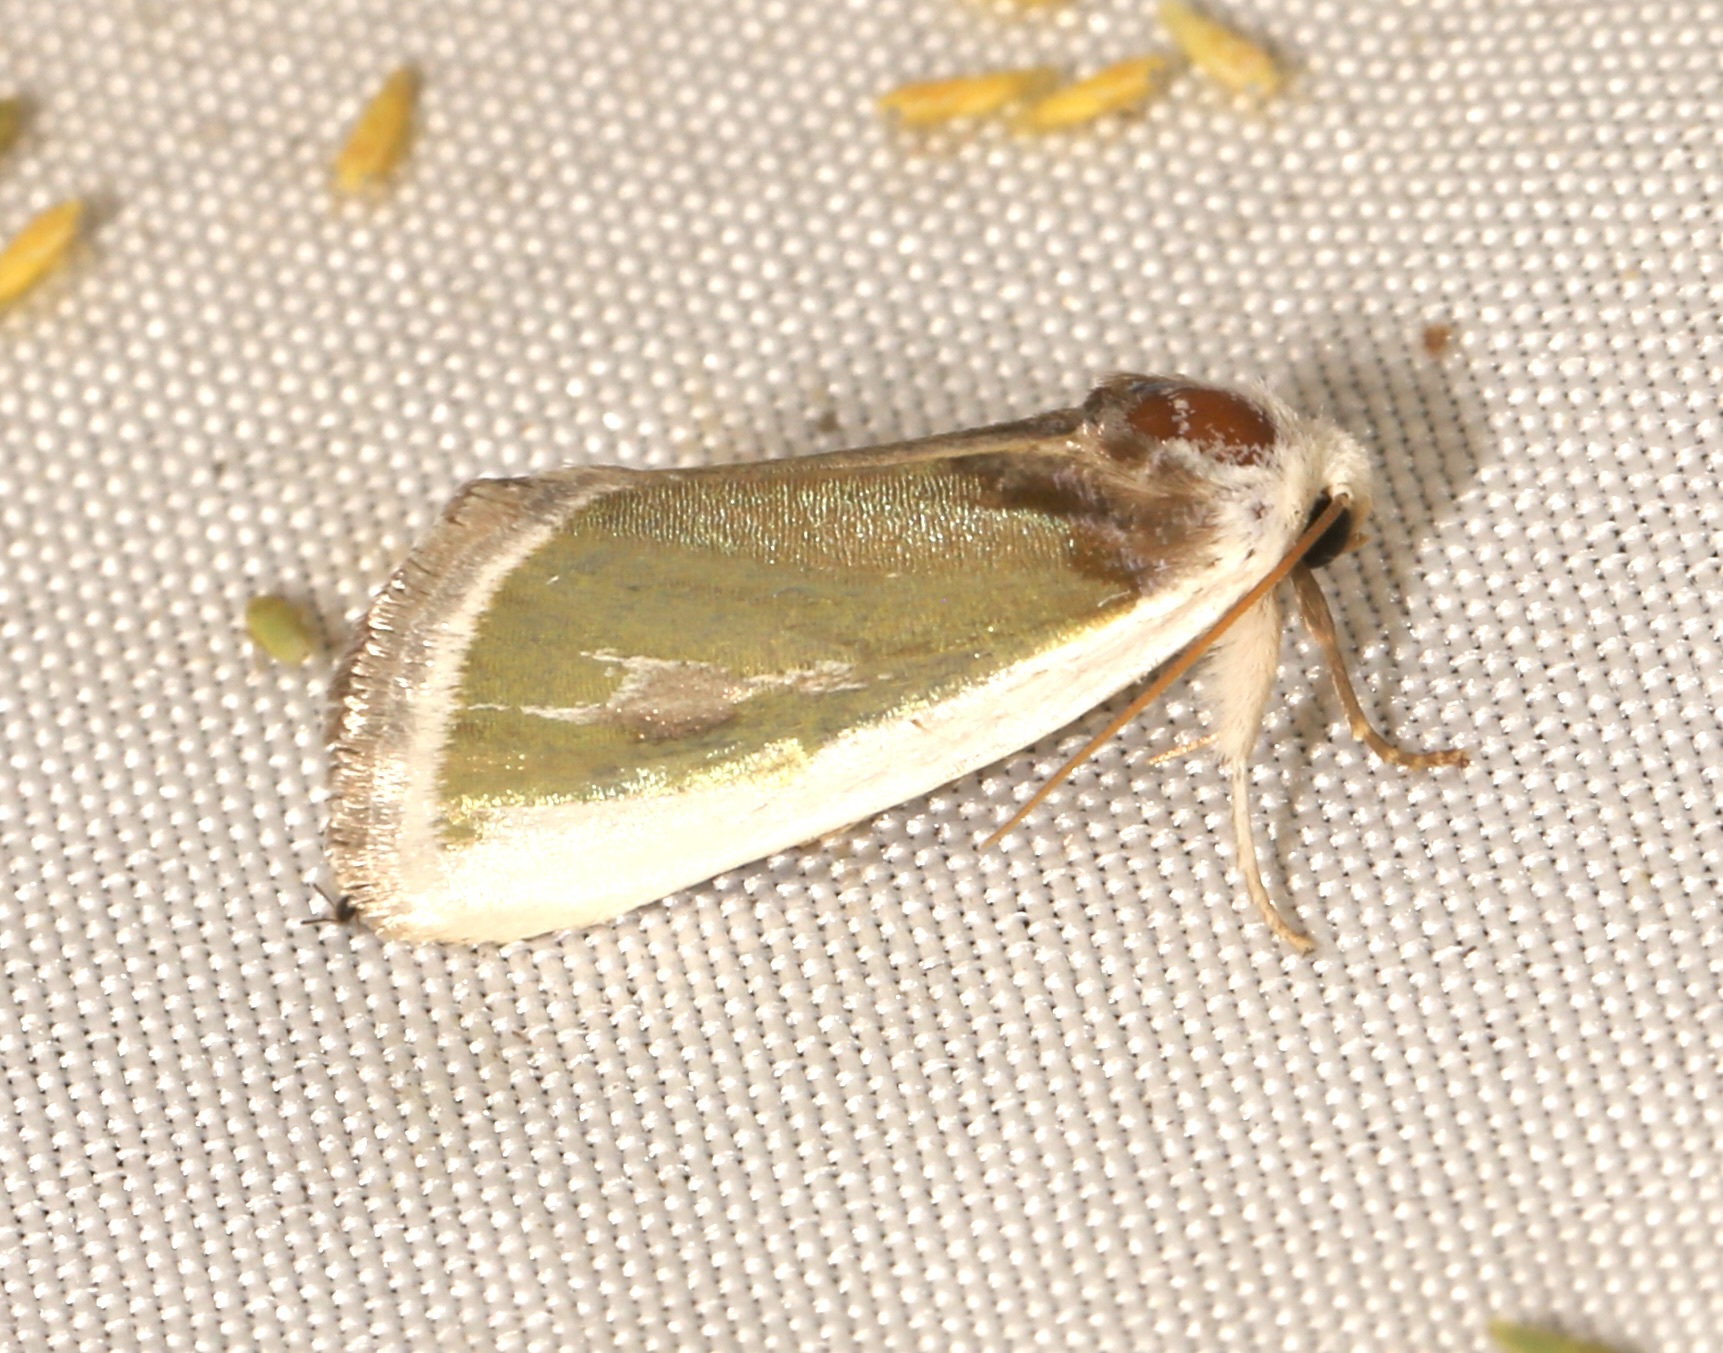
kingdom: Animalia
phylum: Arthropoda
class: Insecta
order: Lepidoptera
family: Noctuidae
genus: Neumoegenia
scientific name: Neumoegenia poetica
